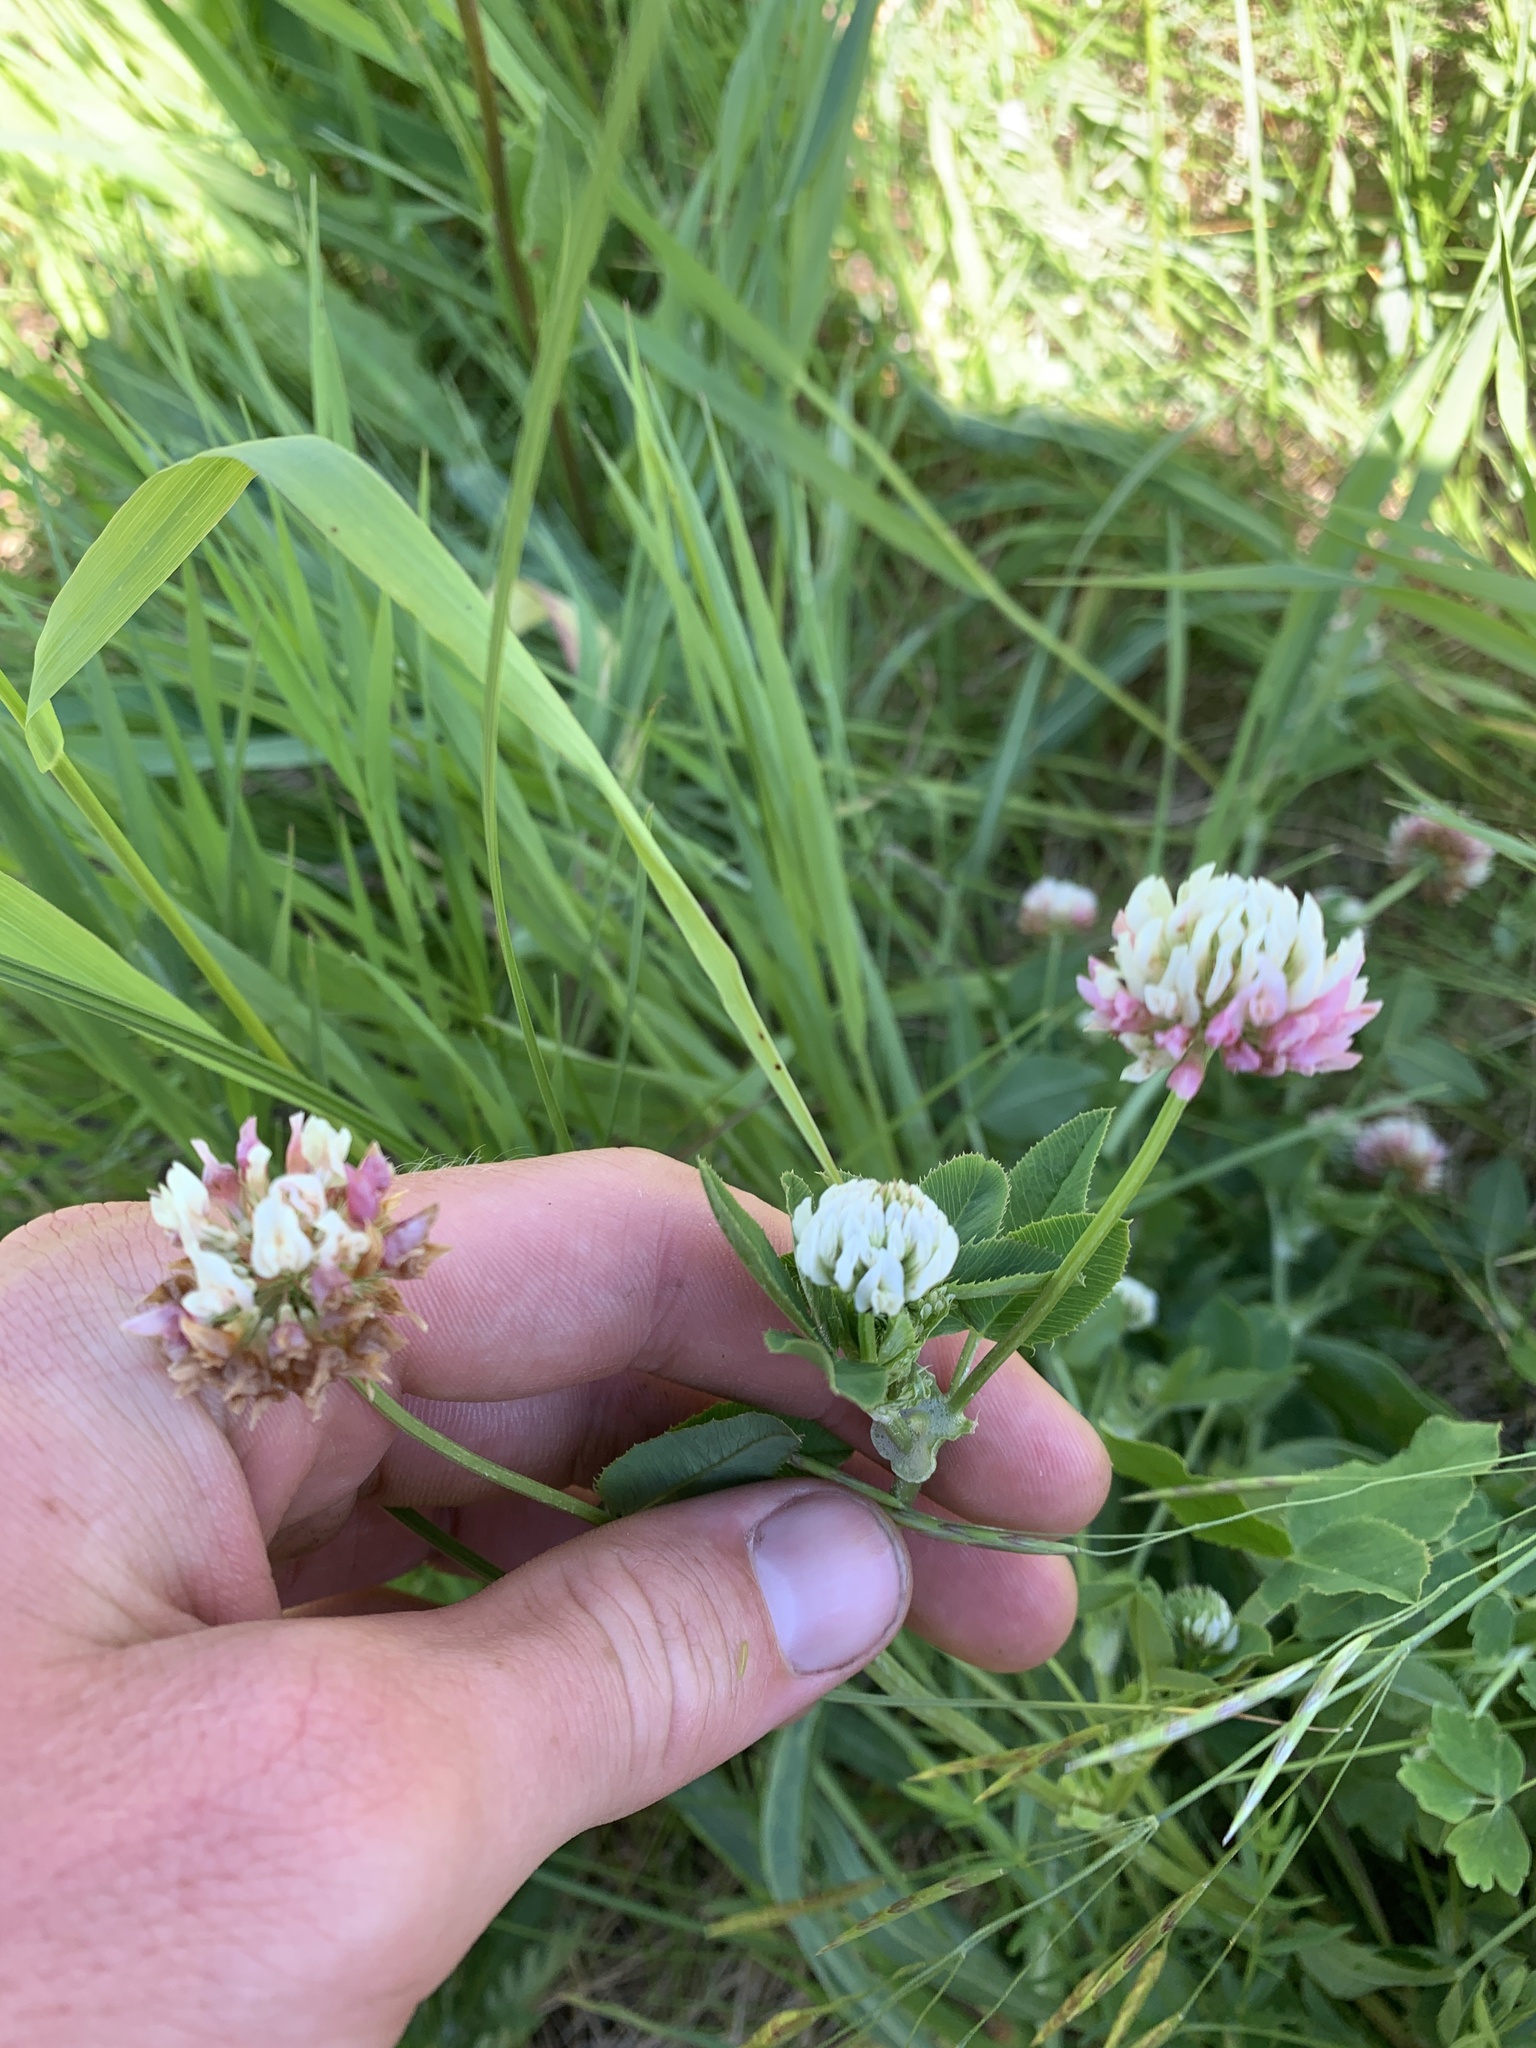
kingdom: Plantae
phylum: Tracheophyta
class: Magnoliopsida
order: Fabales
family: Fabaceae
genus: Trifolium
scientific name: Trifolium hybridum
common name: Alsike clover
